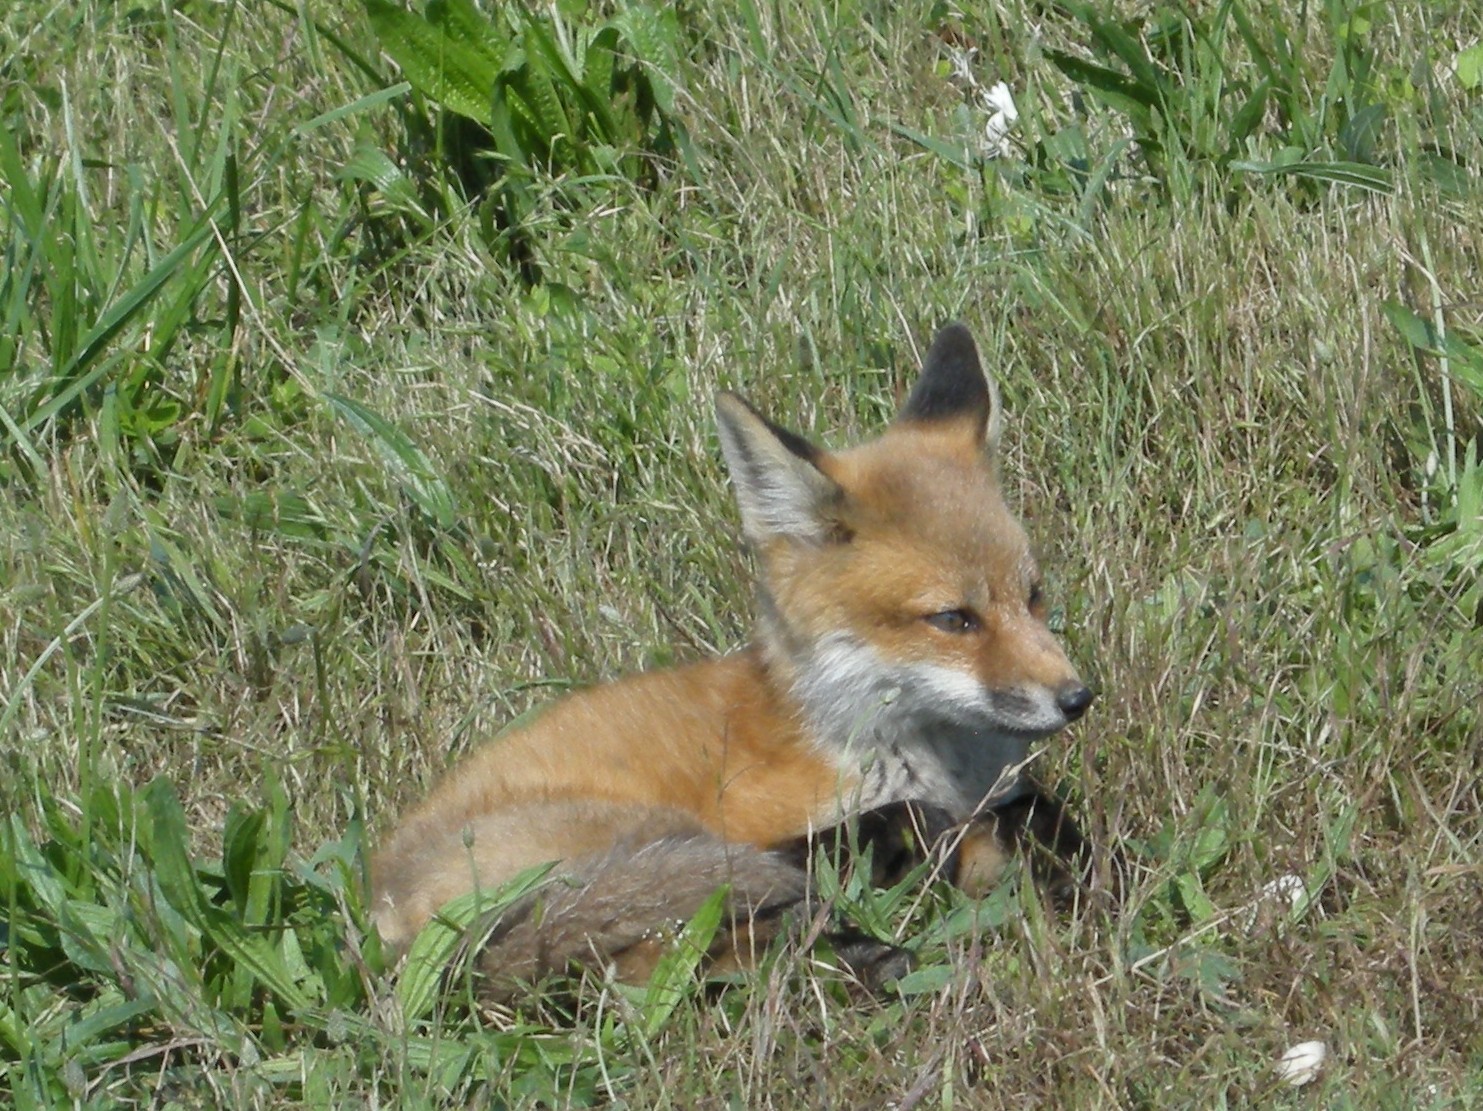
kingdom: Animalia
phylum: Chordata
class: Mammalia
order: Carnivora
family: Canidae
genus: Vulpes
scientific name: Vulpes vulpes
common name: Red fox
